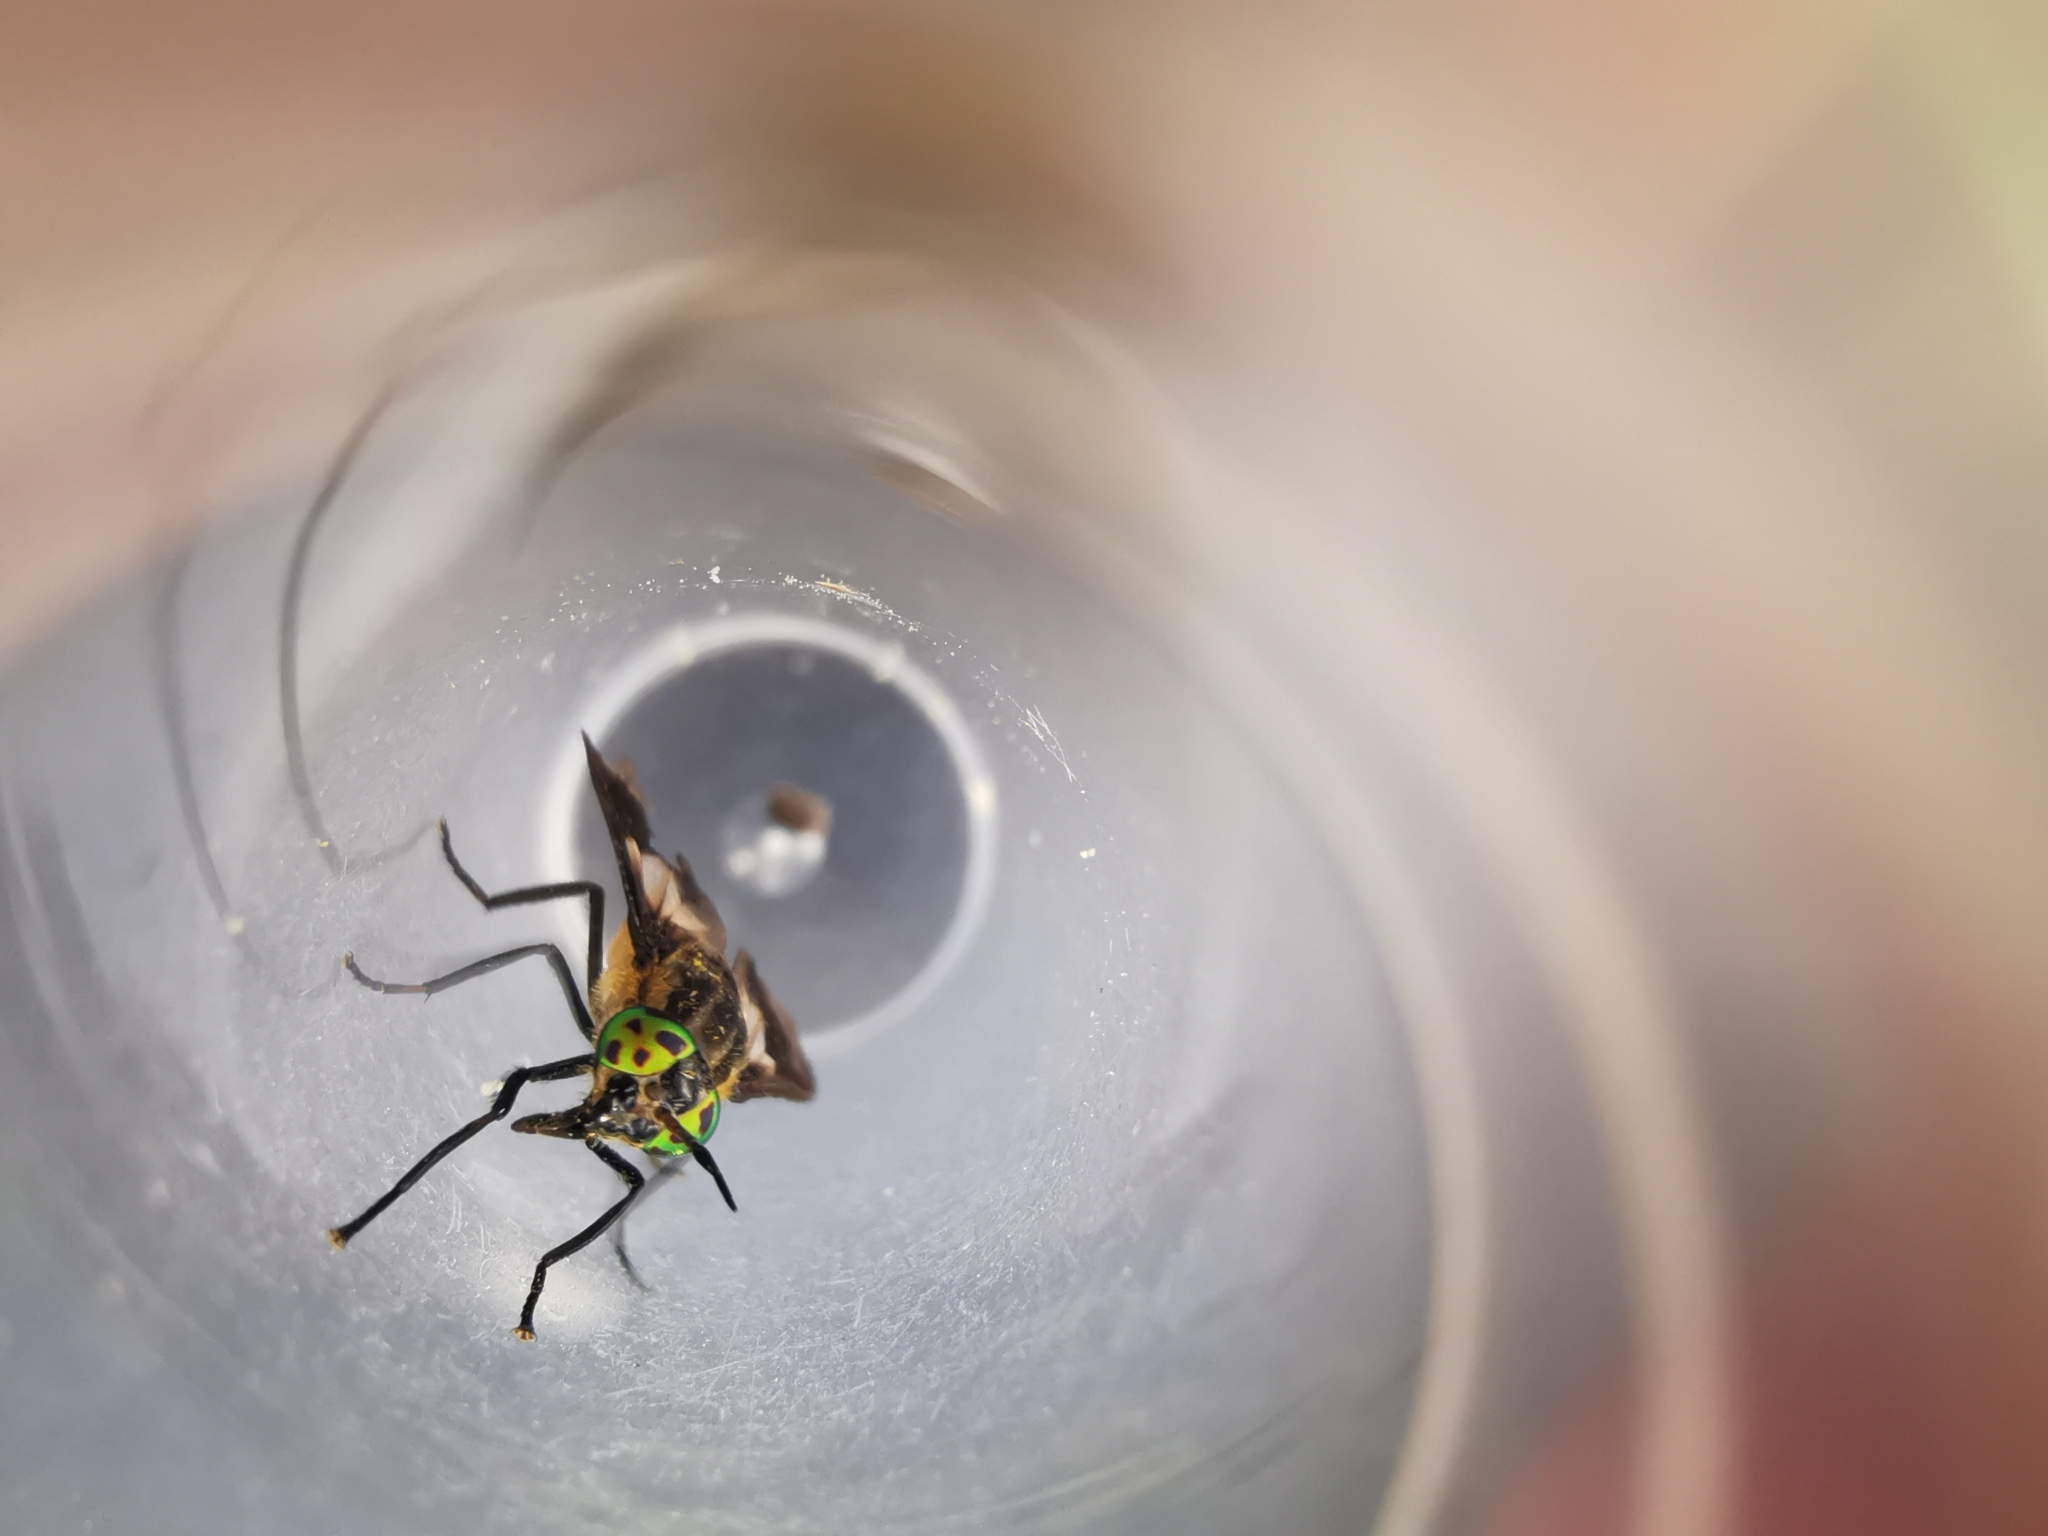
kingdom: Animalia
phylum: Arthropoda
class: Insecta
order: Diptera
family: Tabanidae
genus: Chrysops
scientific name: Chrysops caecutiens
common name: Splayed deerfly
